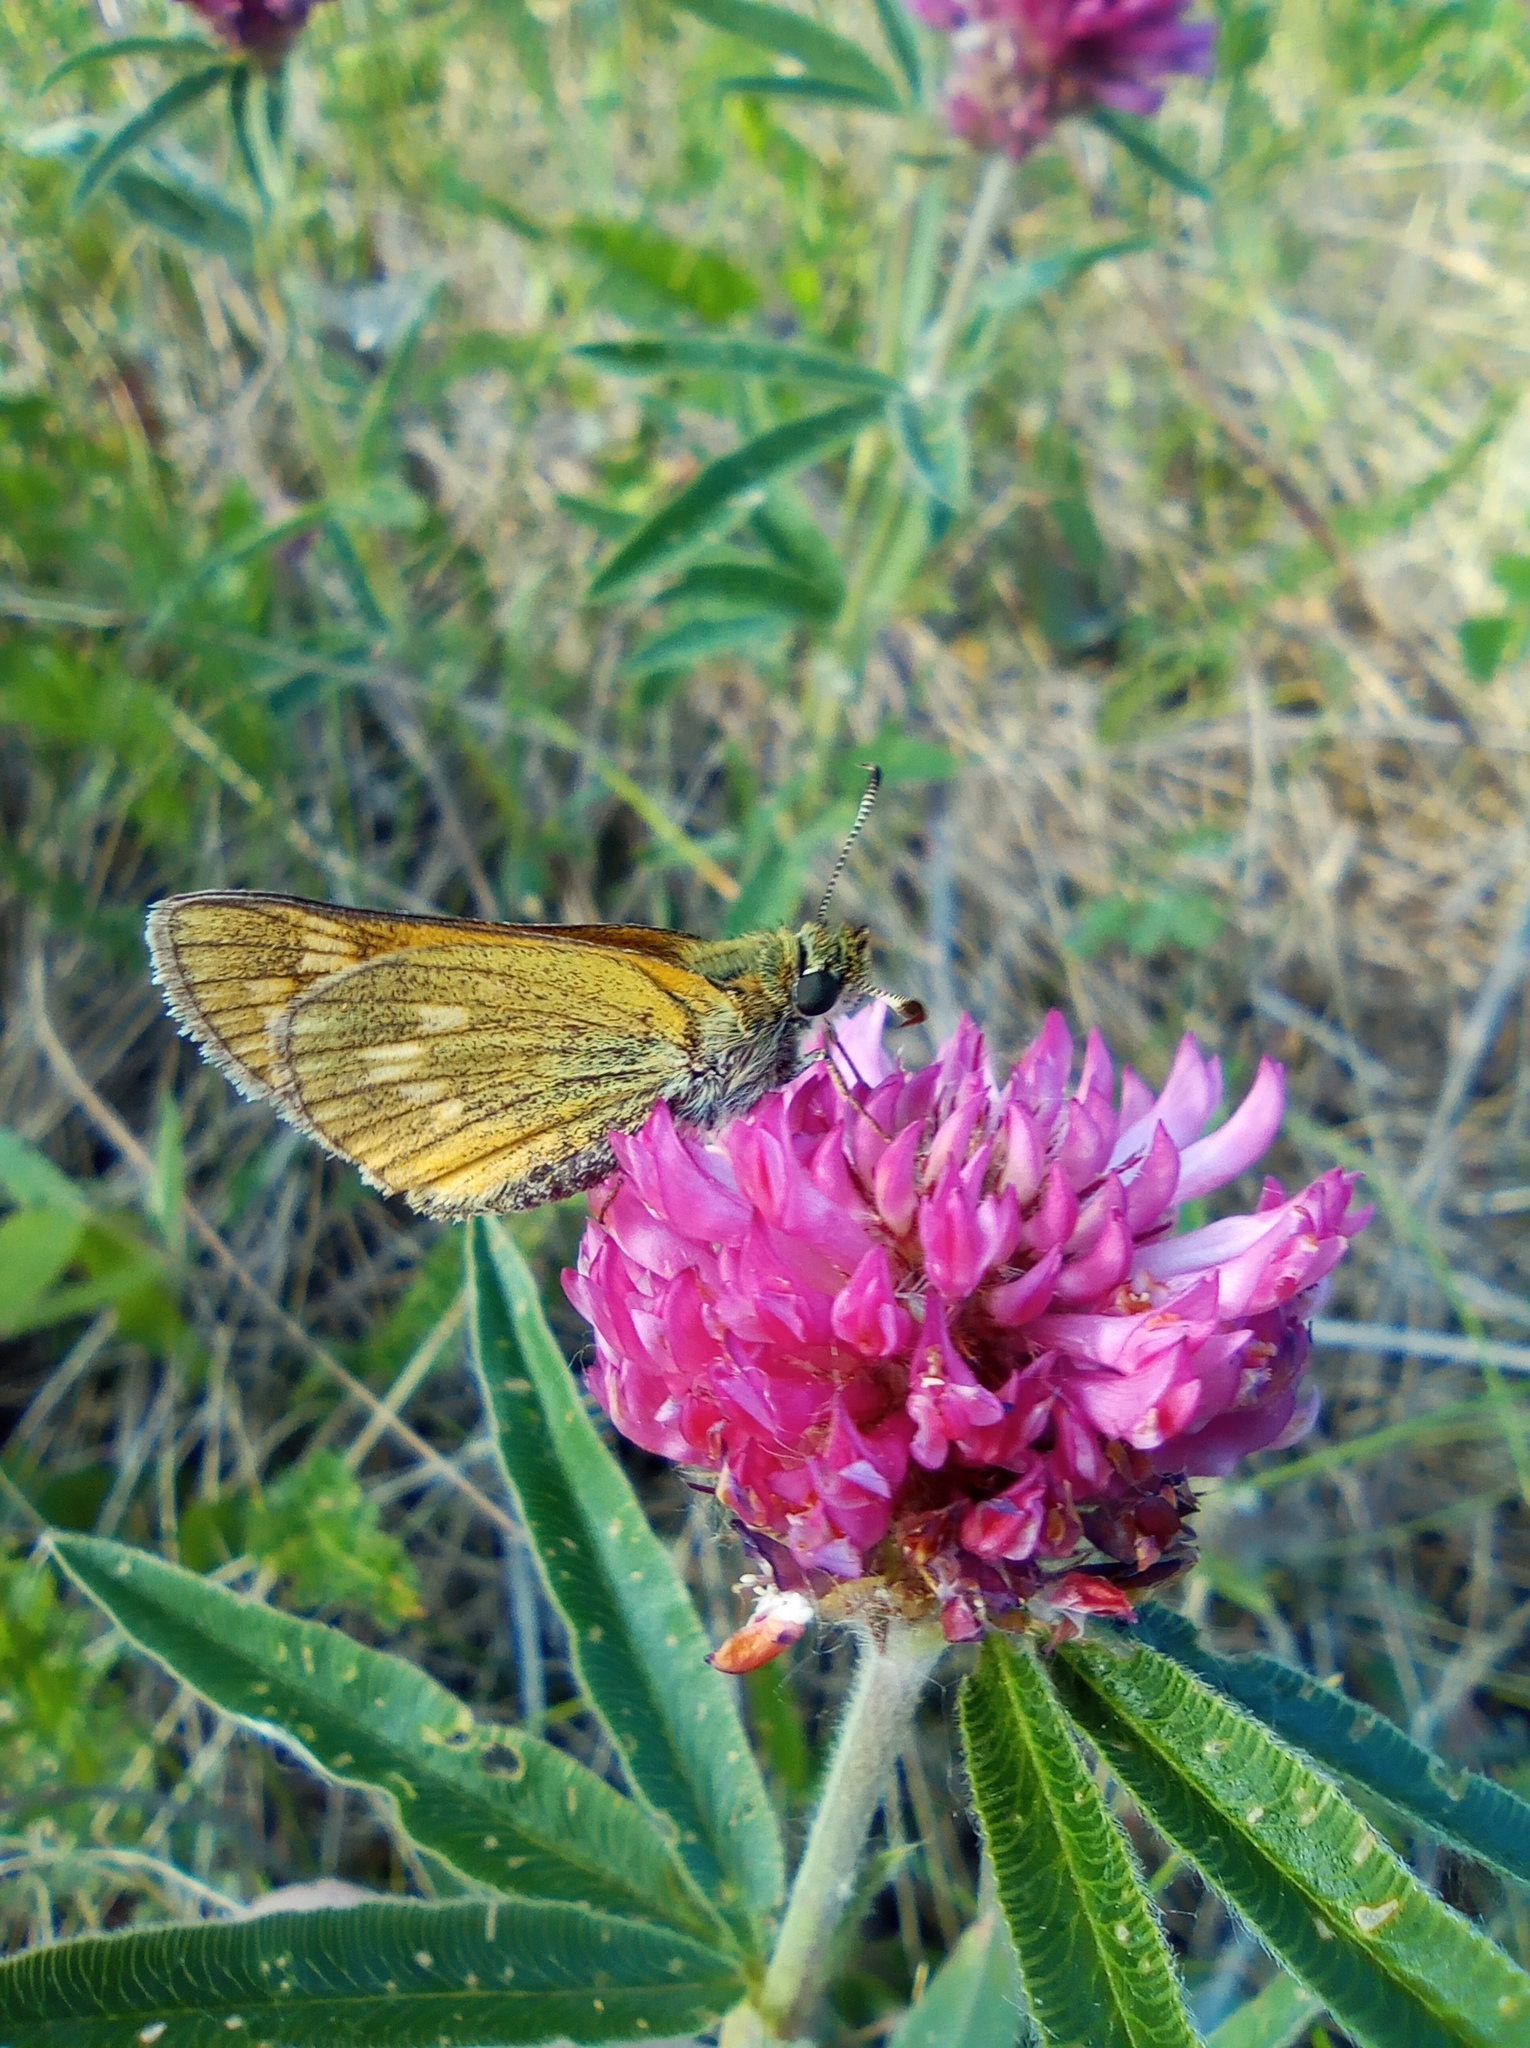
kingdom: Animalia
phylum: Arthropoda
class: Insecta
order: Lepidoptera
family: Hesperiidae
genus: Ochlodes
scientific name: Ochlodes venata
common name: Large skipper
